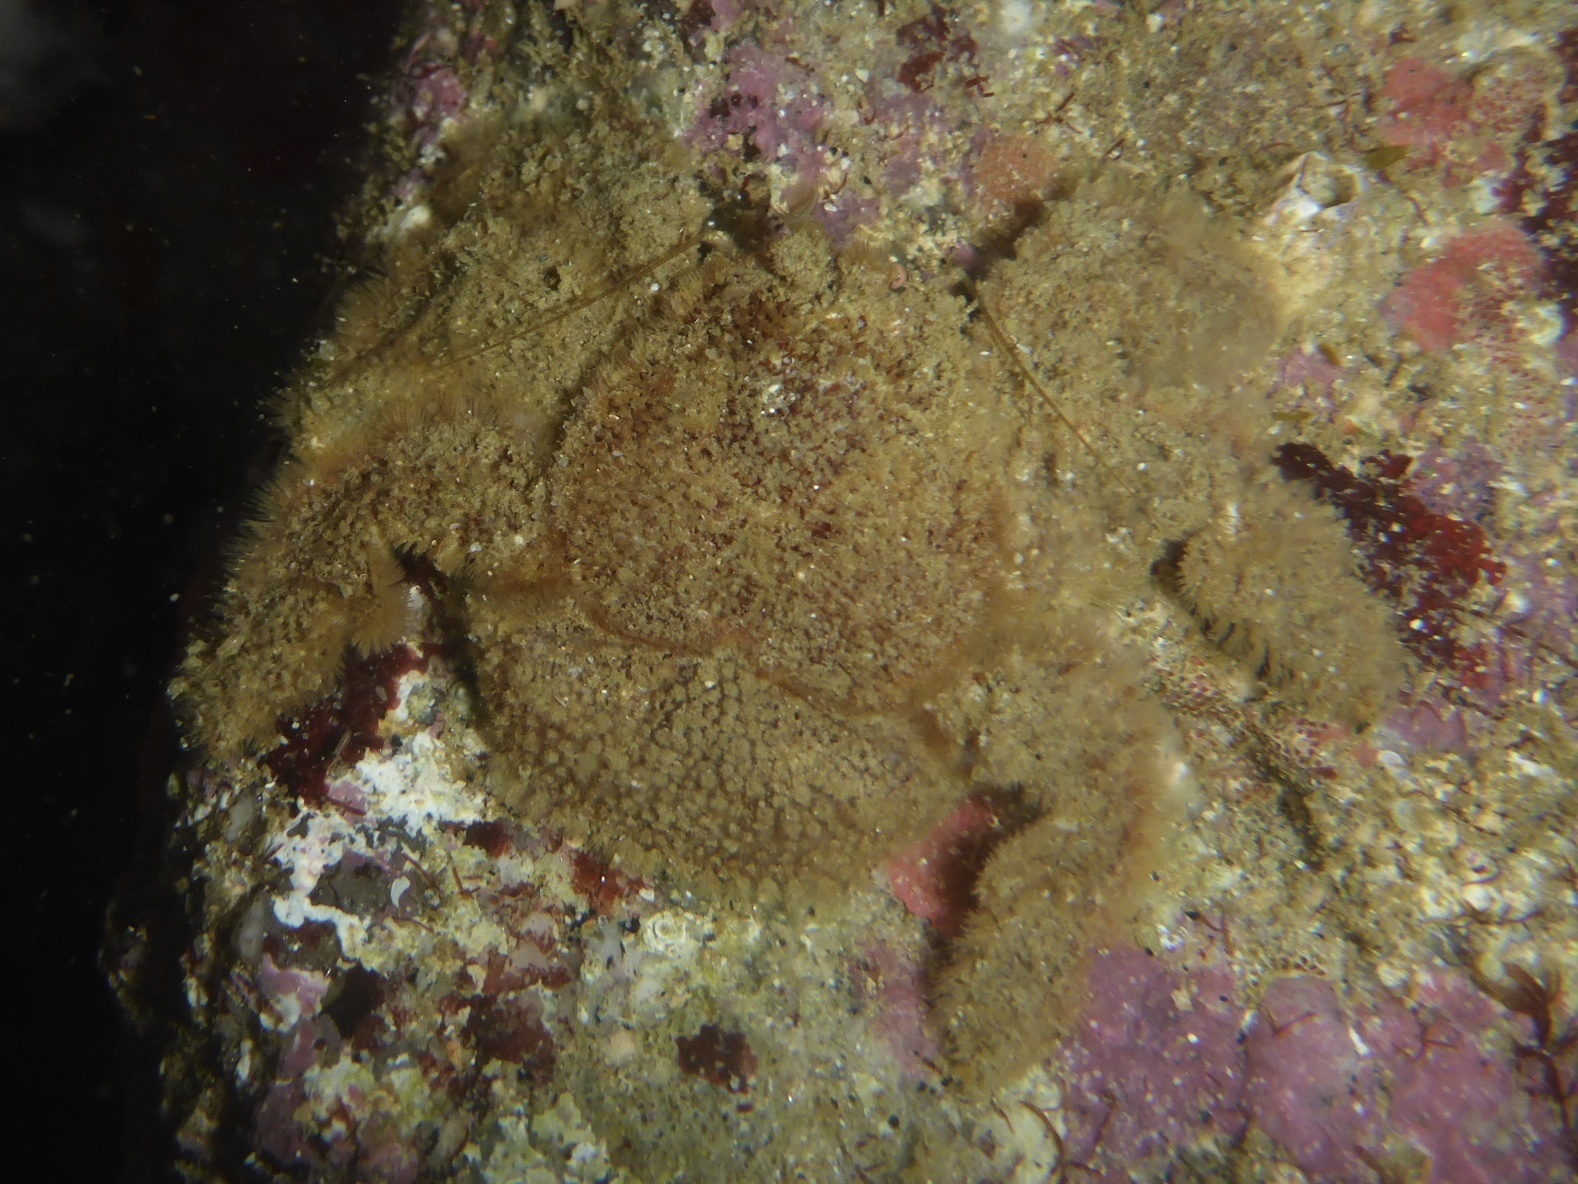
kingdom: Animalia
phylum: Arthropoda
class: Malacostraca
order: Decapoda
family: Hapalogastridae
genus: Hapalogaster
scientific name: Hapalogaster cavicauda
